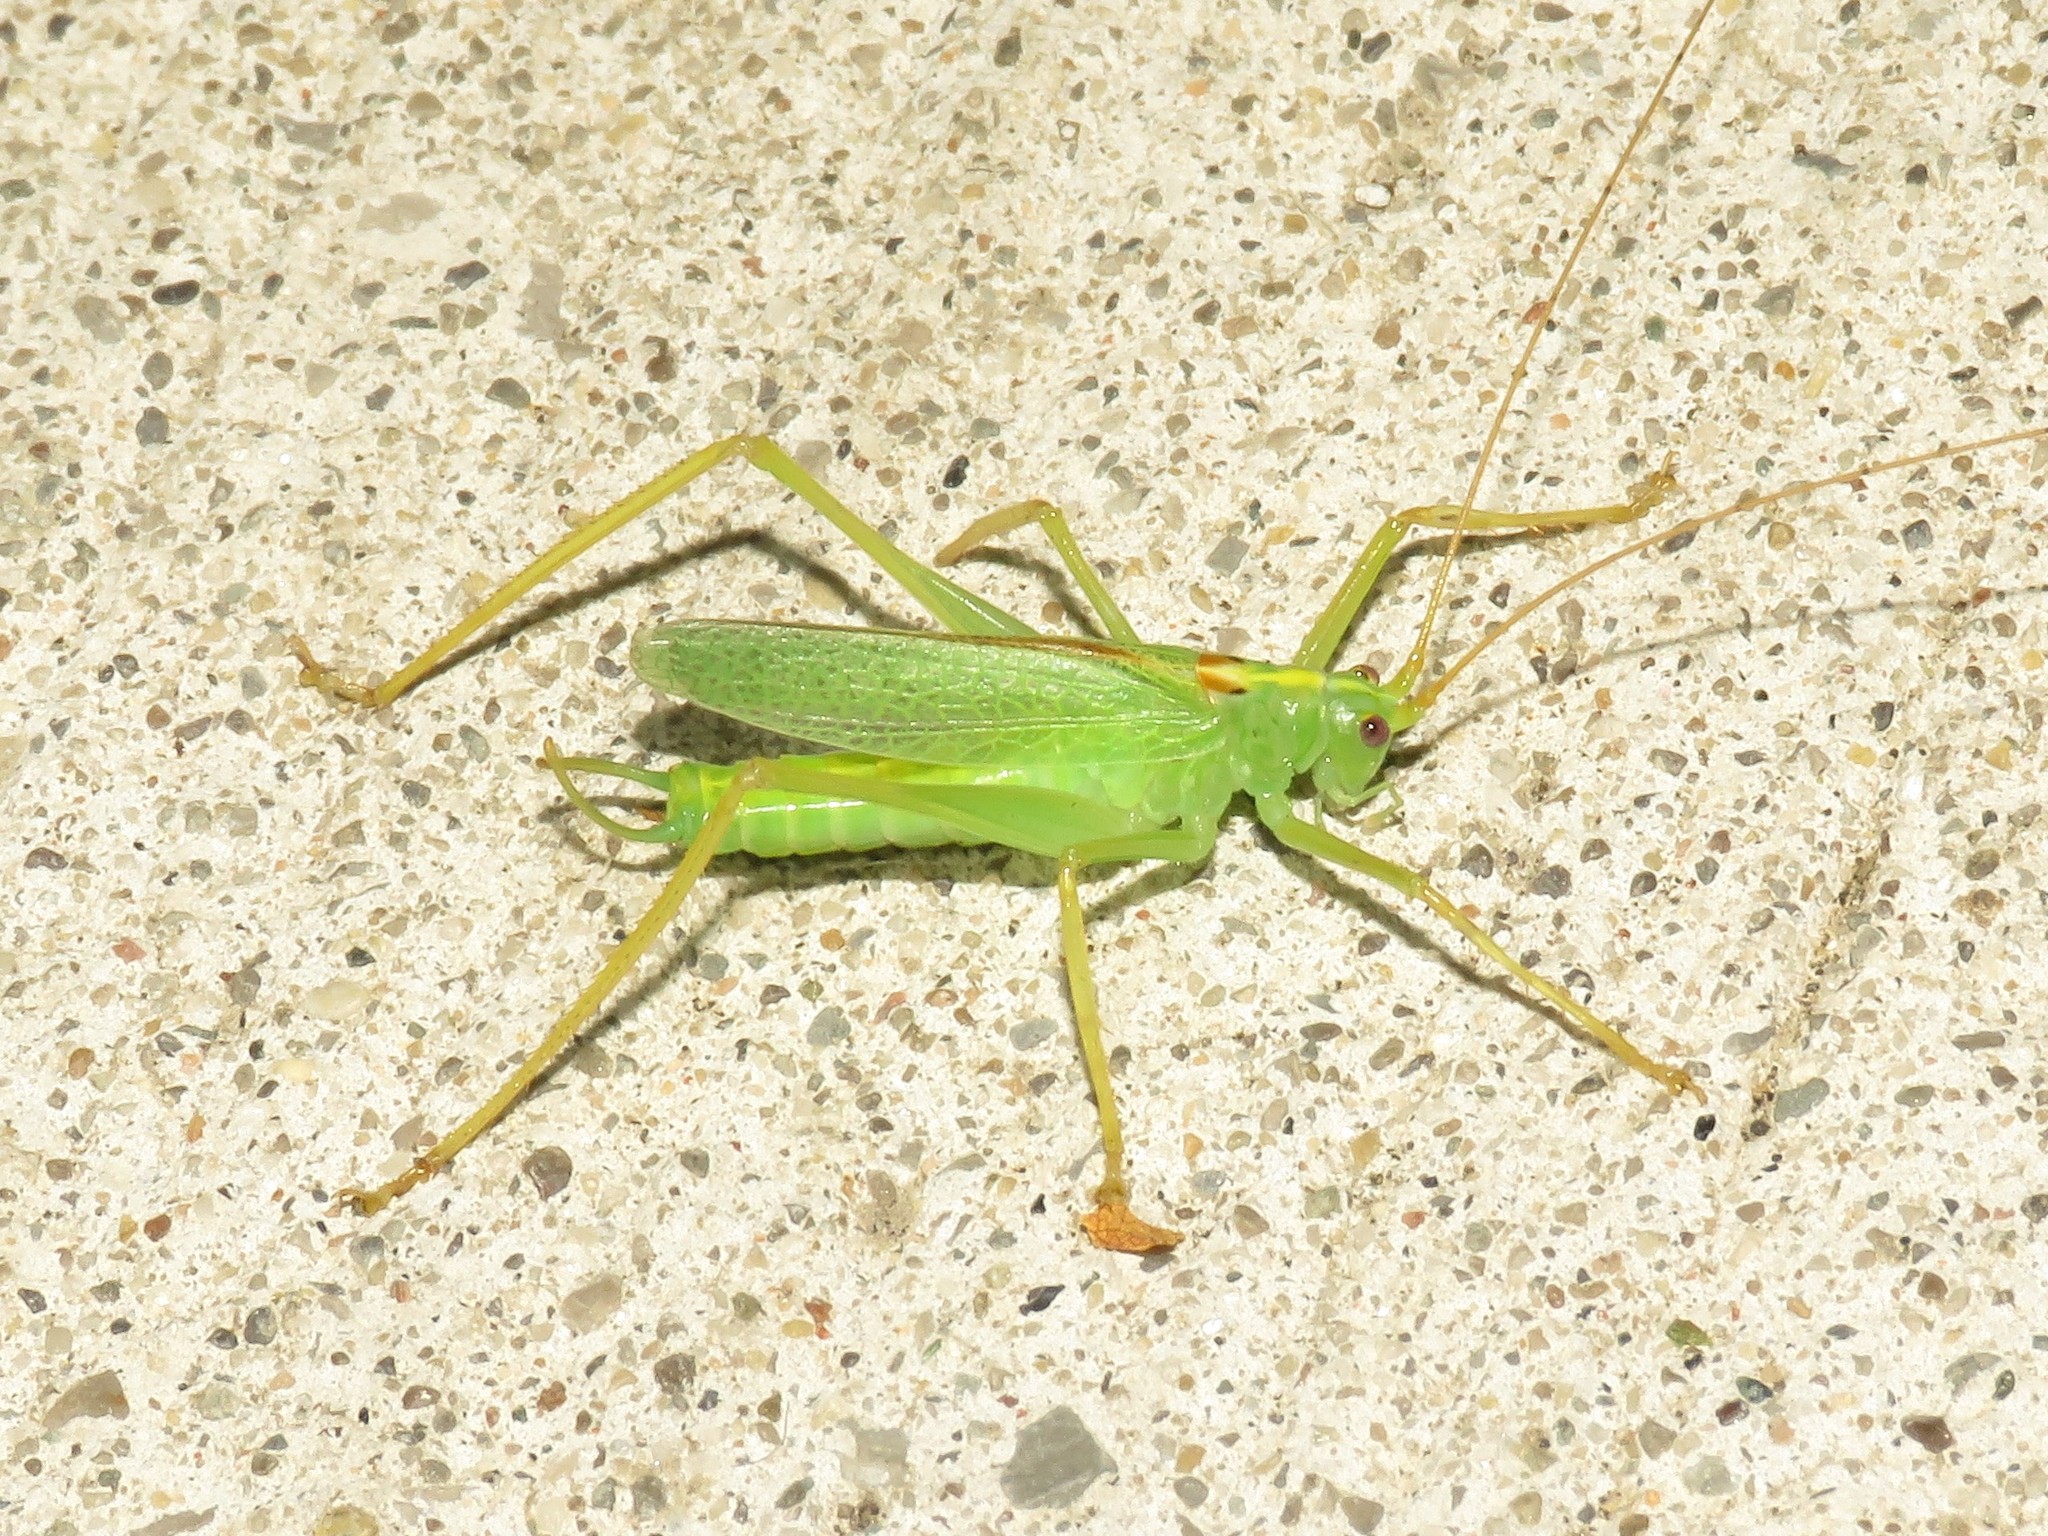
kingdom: Animalia
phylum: Arthropoda
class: Insecta
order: Orthoptera
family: Tettigoniidae
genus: Meconema
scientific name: Meconema thalassinum
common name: Oak bush-cricket
